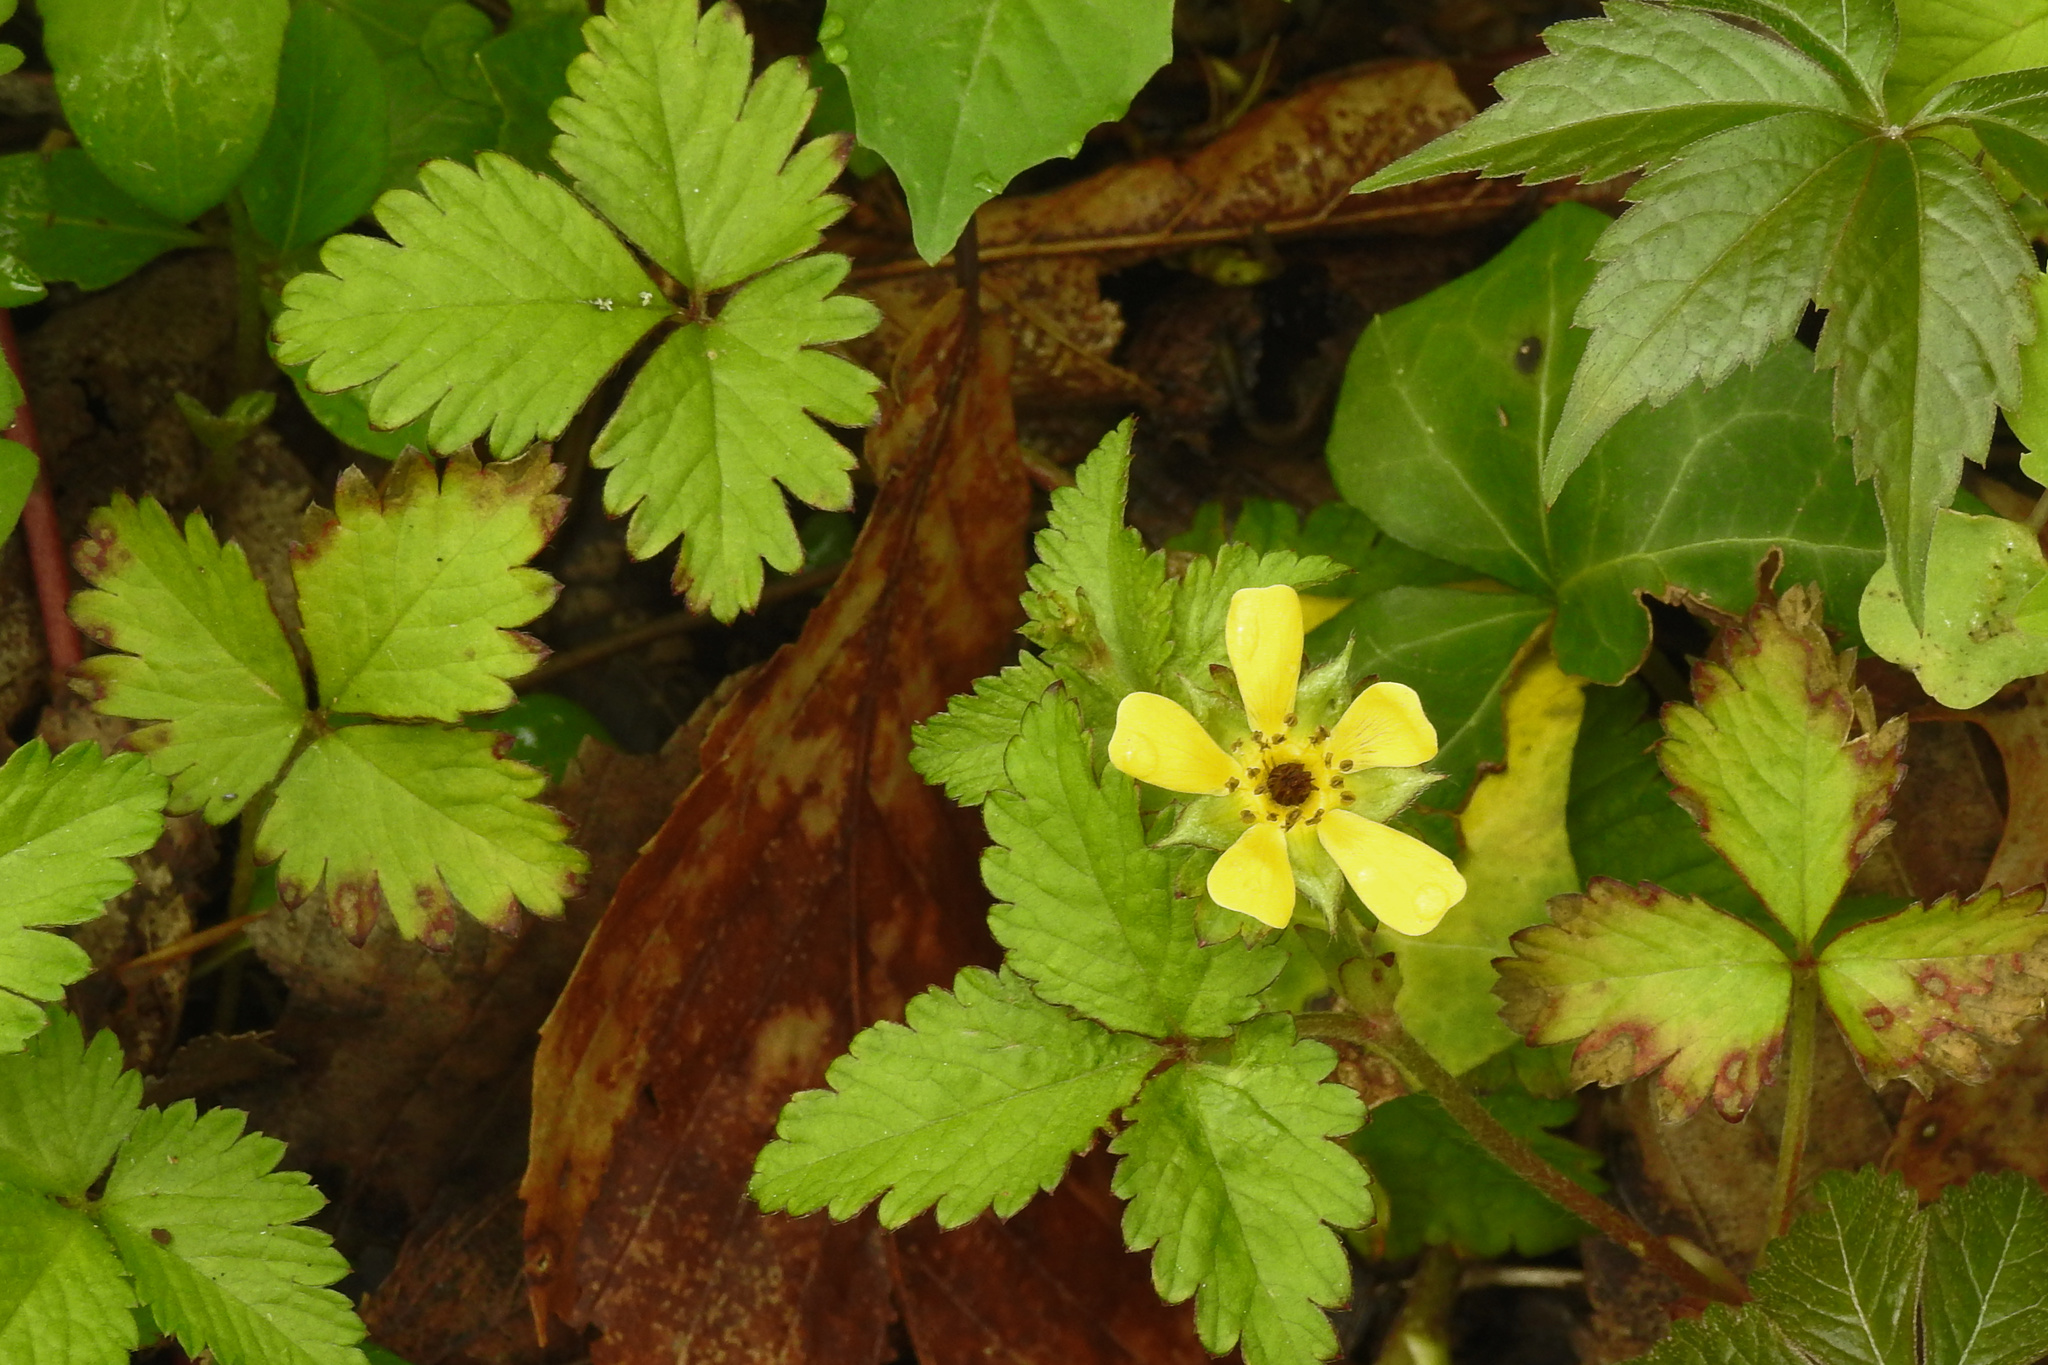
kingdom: Plantae
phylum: Tracheophyta
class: Magnoliopsida
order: Rosales
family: Rosaceae
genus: Potentilla
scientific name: Potentilla indica
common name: Yellow-flowered strawberry
